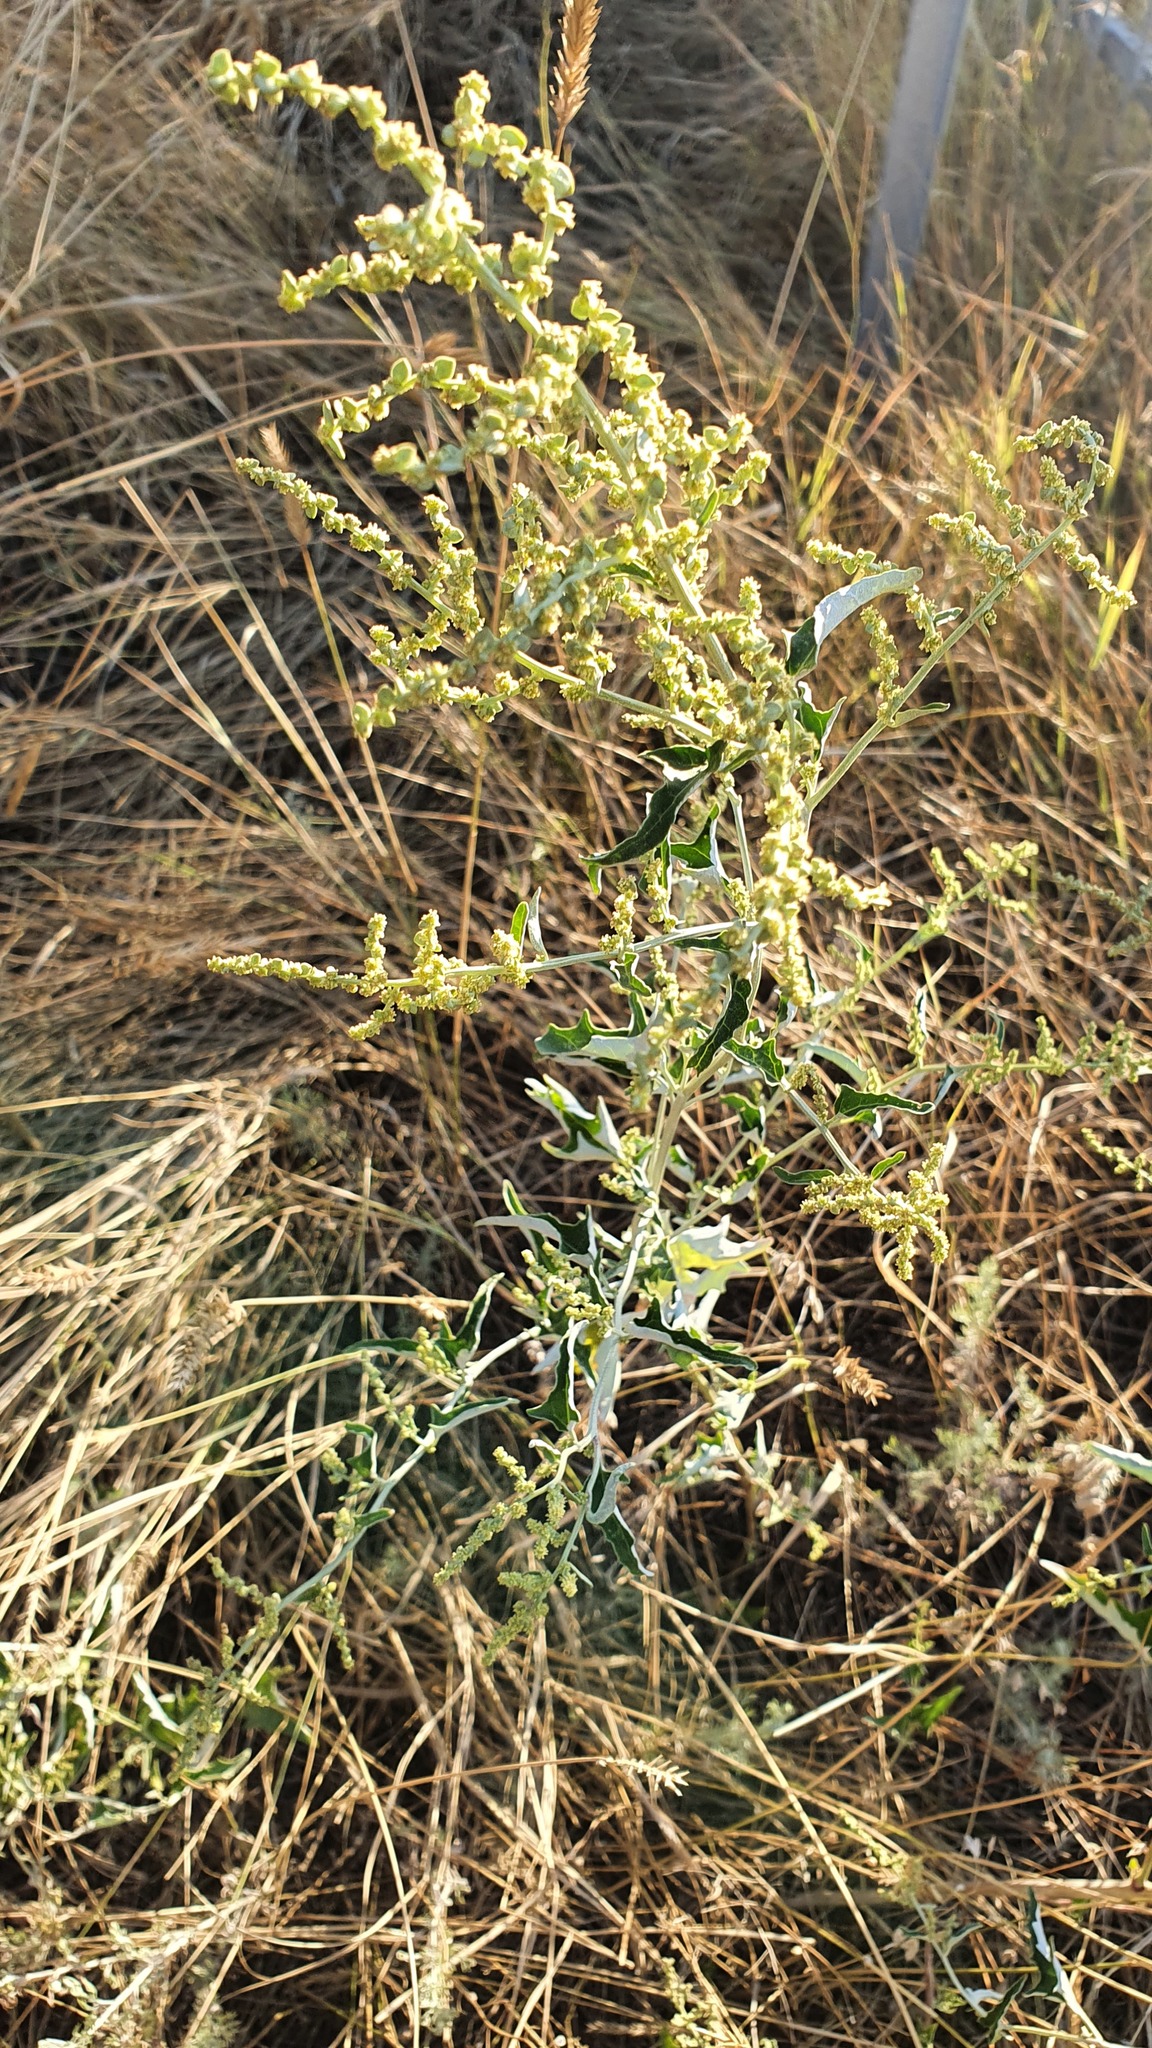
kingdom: Plantae
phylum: Tracheophyta
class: Magnoliopsida
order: Caryophyllales
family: Amaranthaceae
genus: Atriplex
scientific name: Atriplex aucheri
